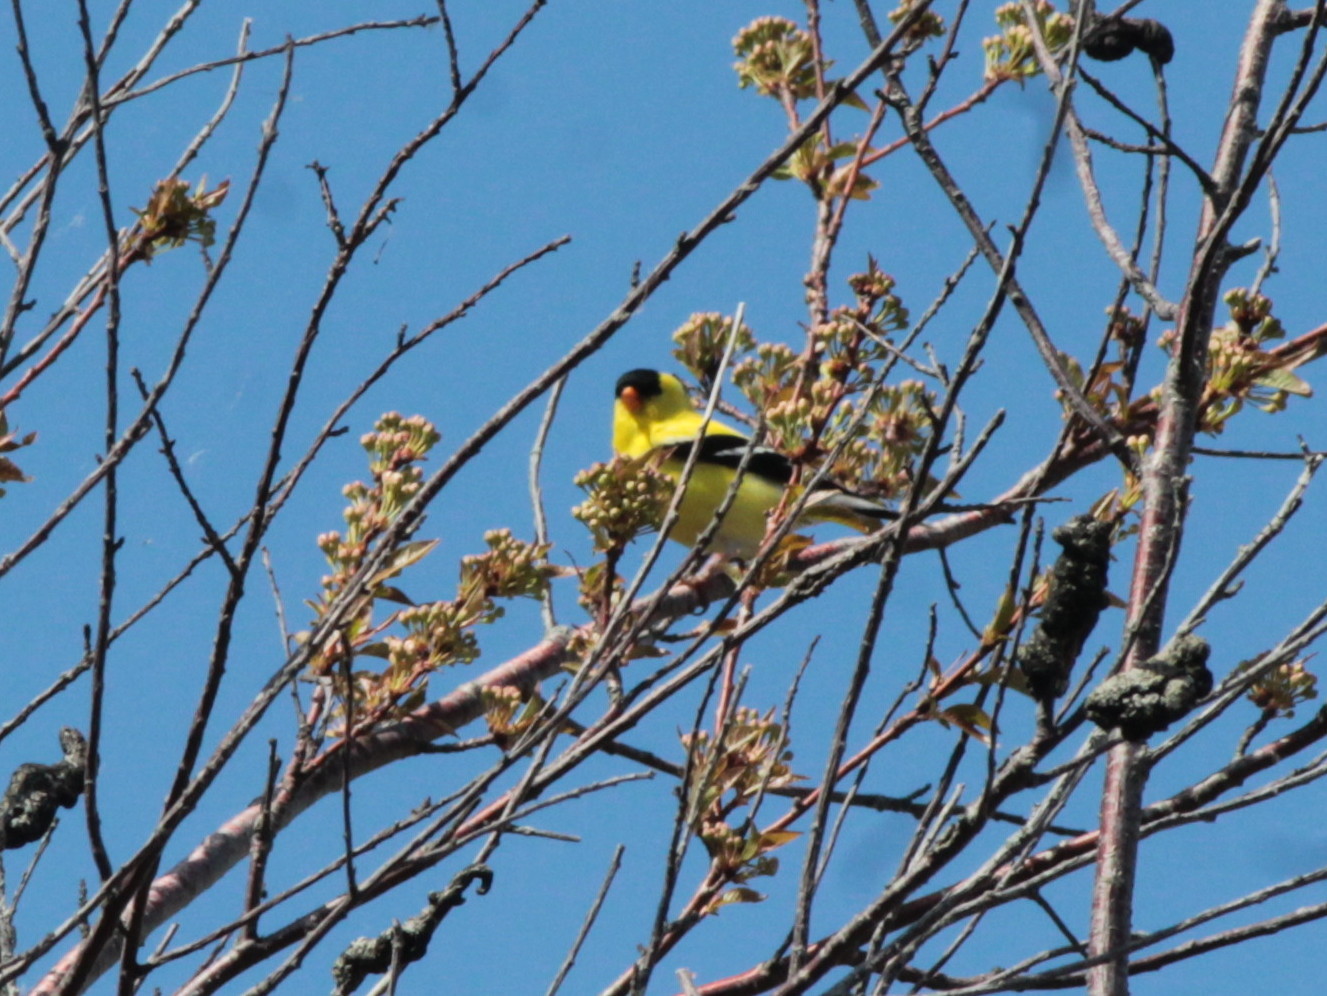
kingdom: Animalia
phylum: Chordata
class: Aves
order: Passeriformes
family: Fringillidae
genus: Spinus
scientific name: Spinus tristis
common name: American goldfinch
